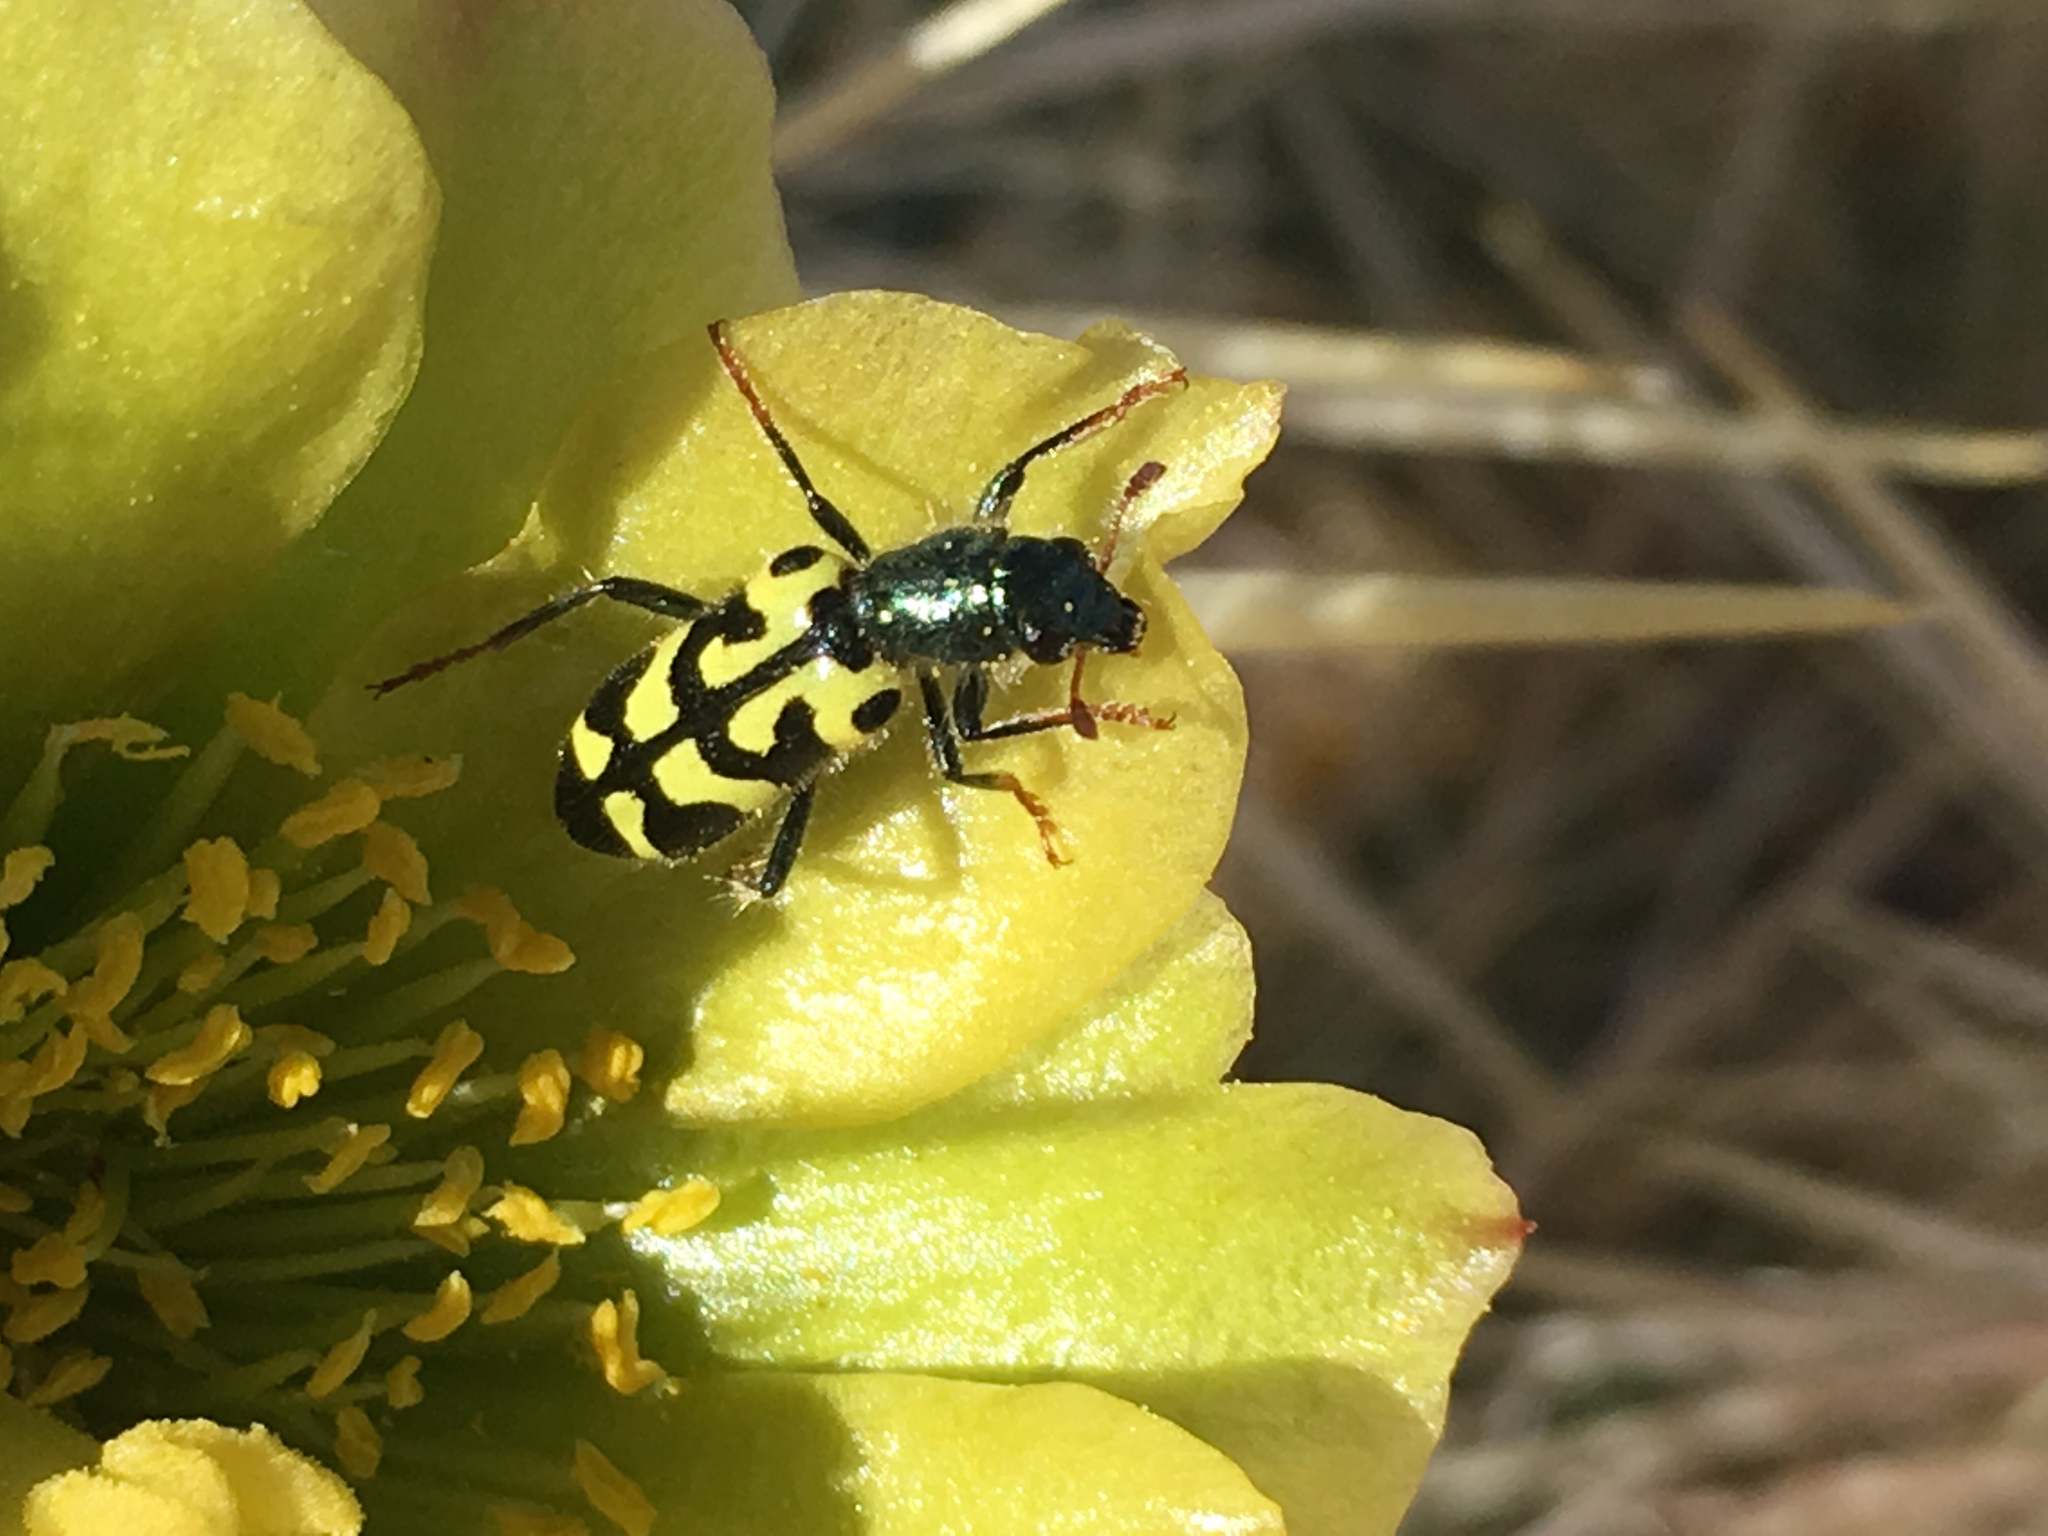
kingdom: Animalia
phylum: Arthropoda
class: Insecta
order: Coleoptera
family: Cleridae
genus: Trichodes
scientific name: Trichodes ornatus
